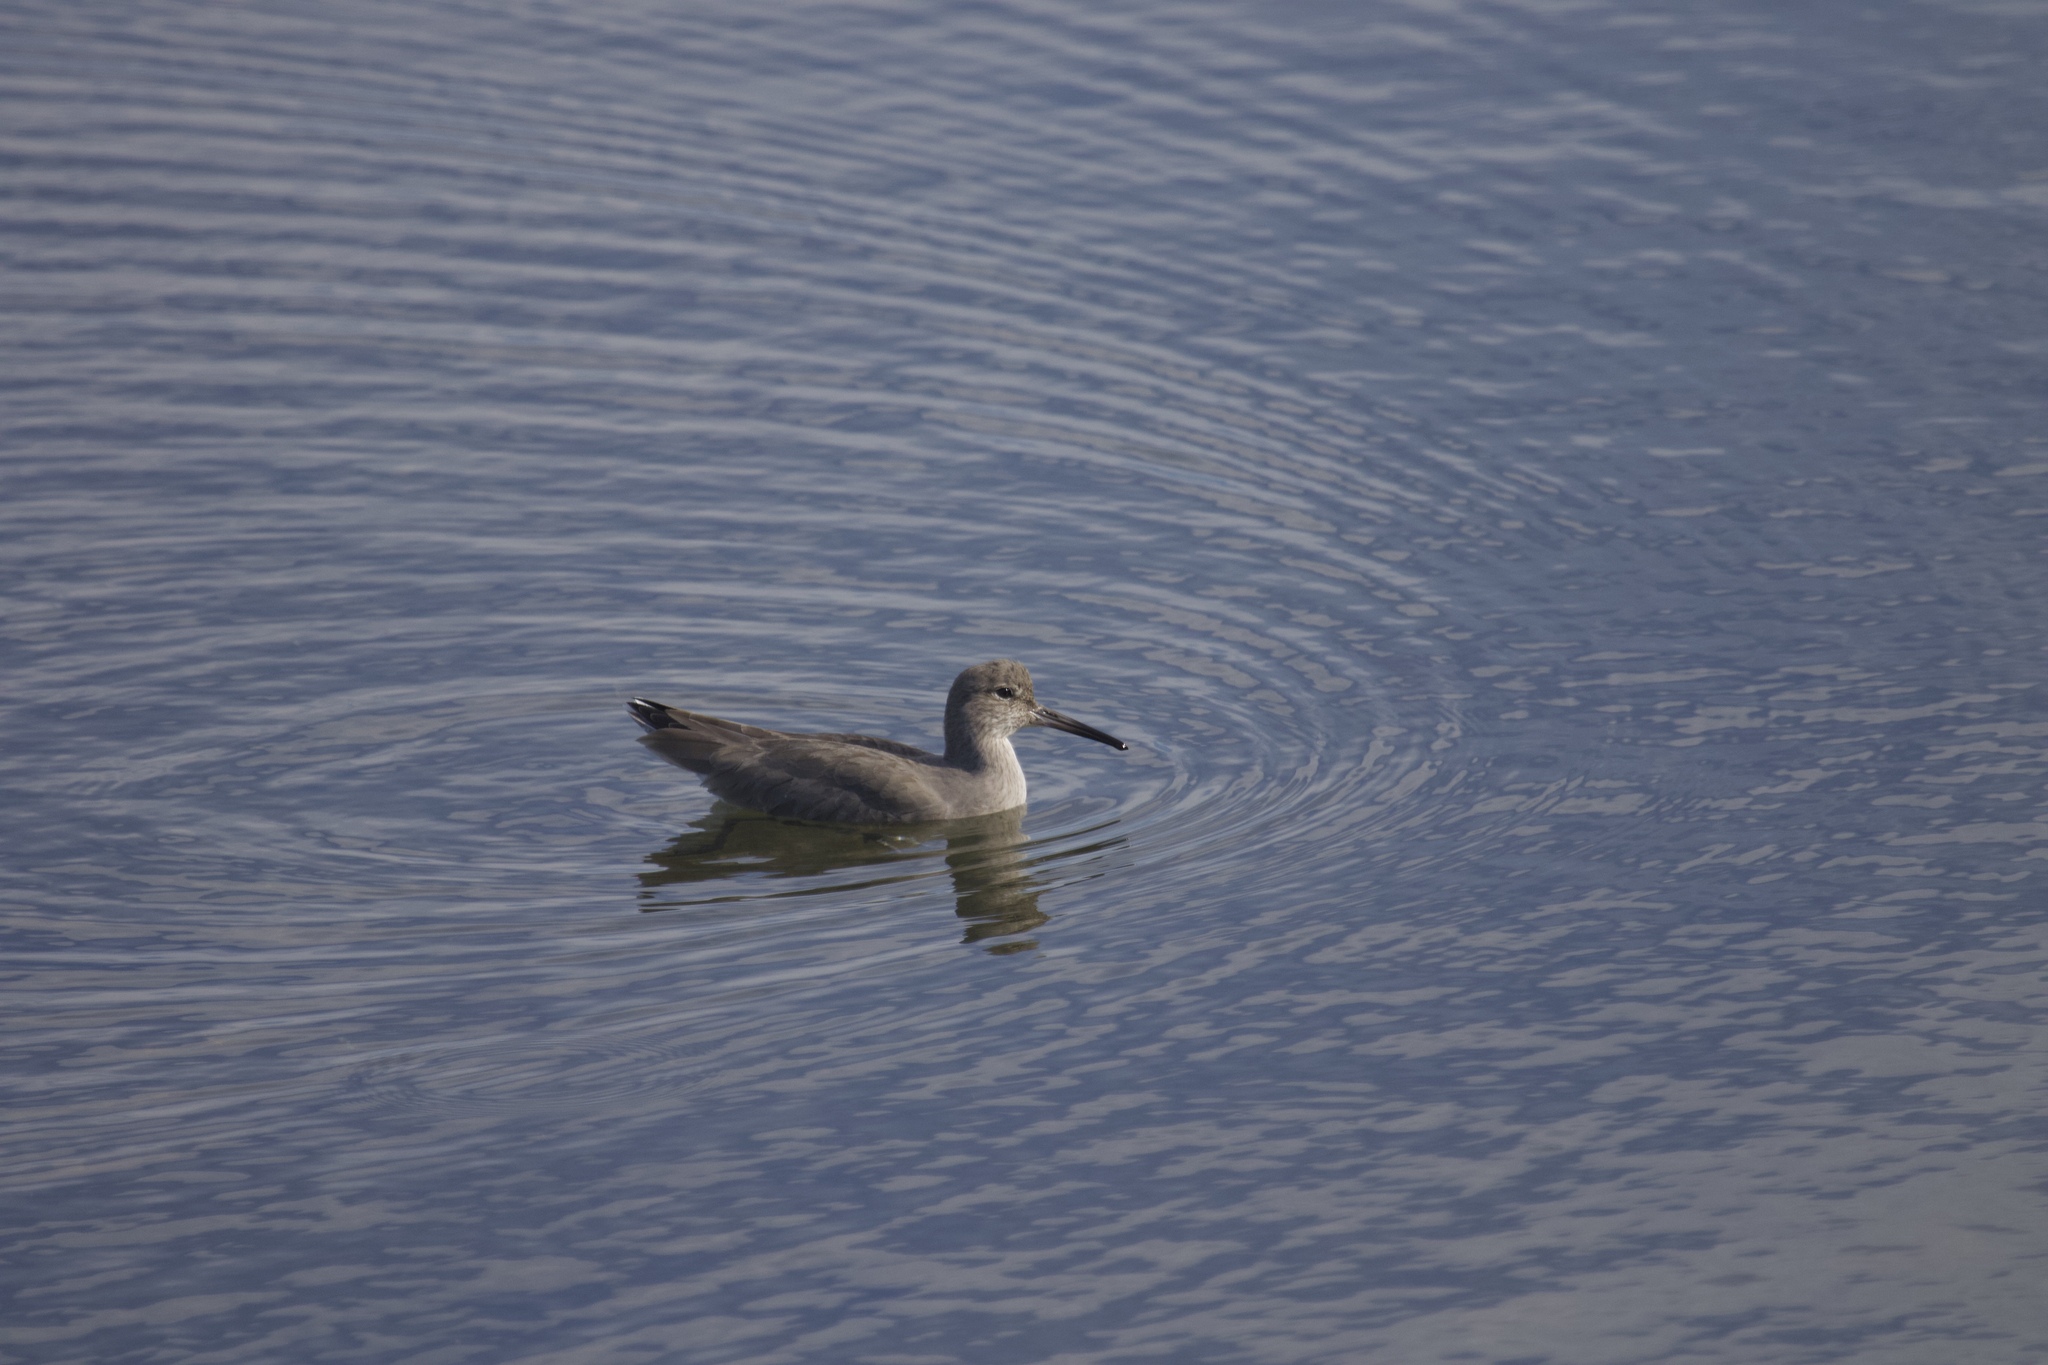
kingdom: Animalia
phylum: Chordata
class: Aves
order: Charadriiformes
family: Scolopacidae
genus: Tringa
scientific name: Tringa semipalmata
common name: Willet
